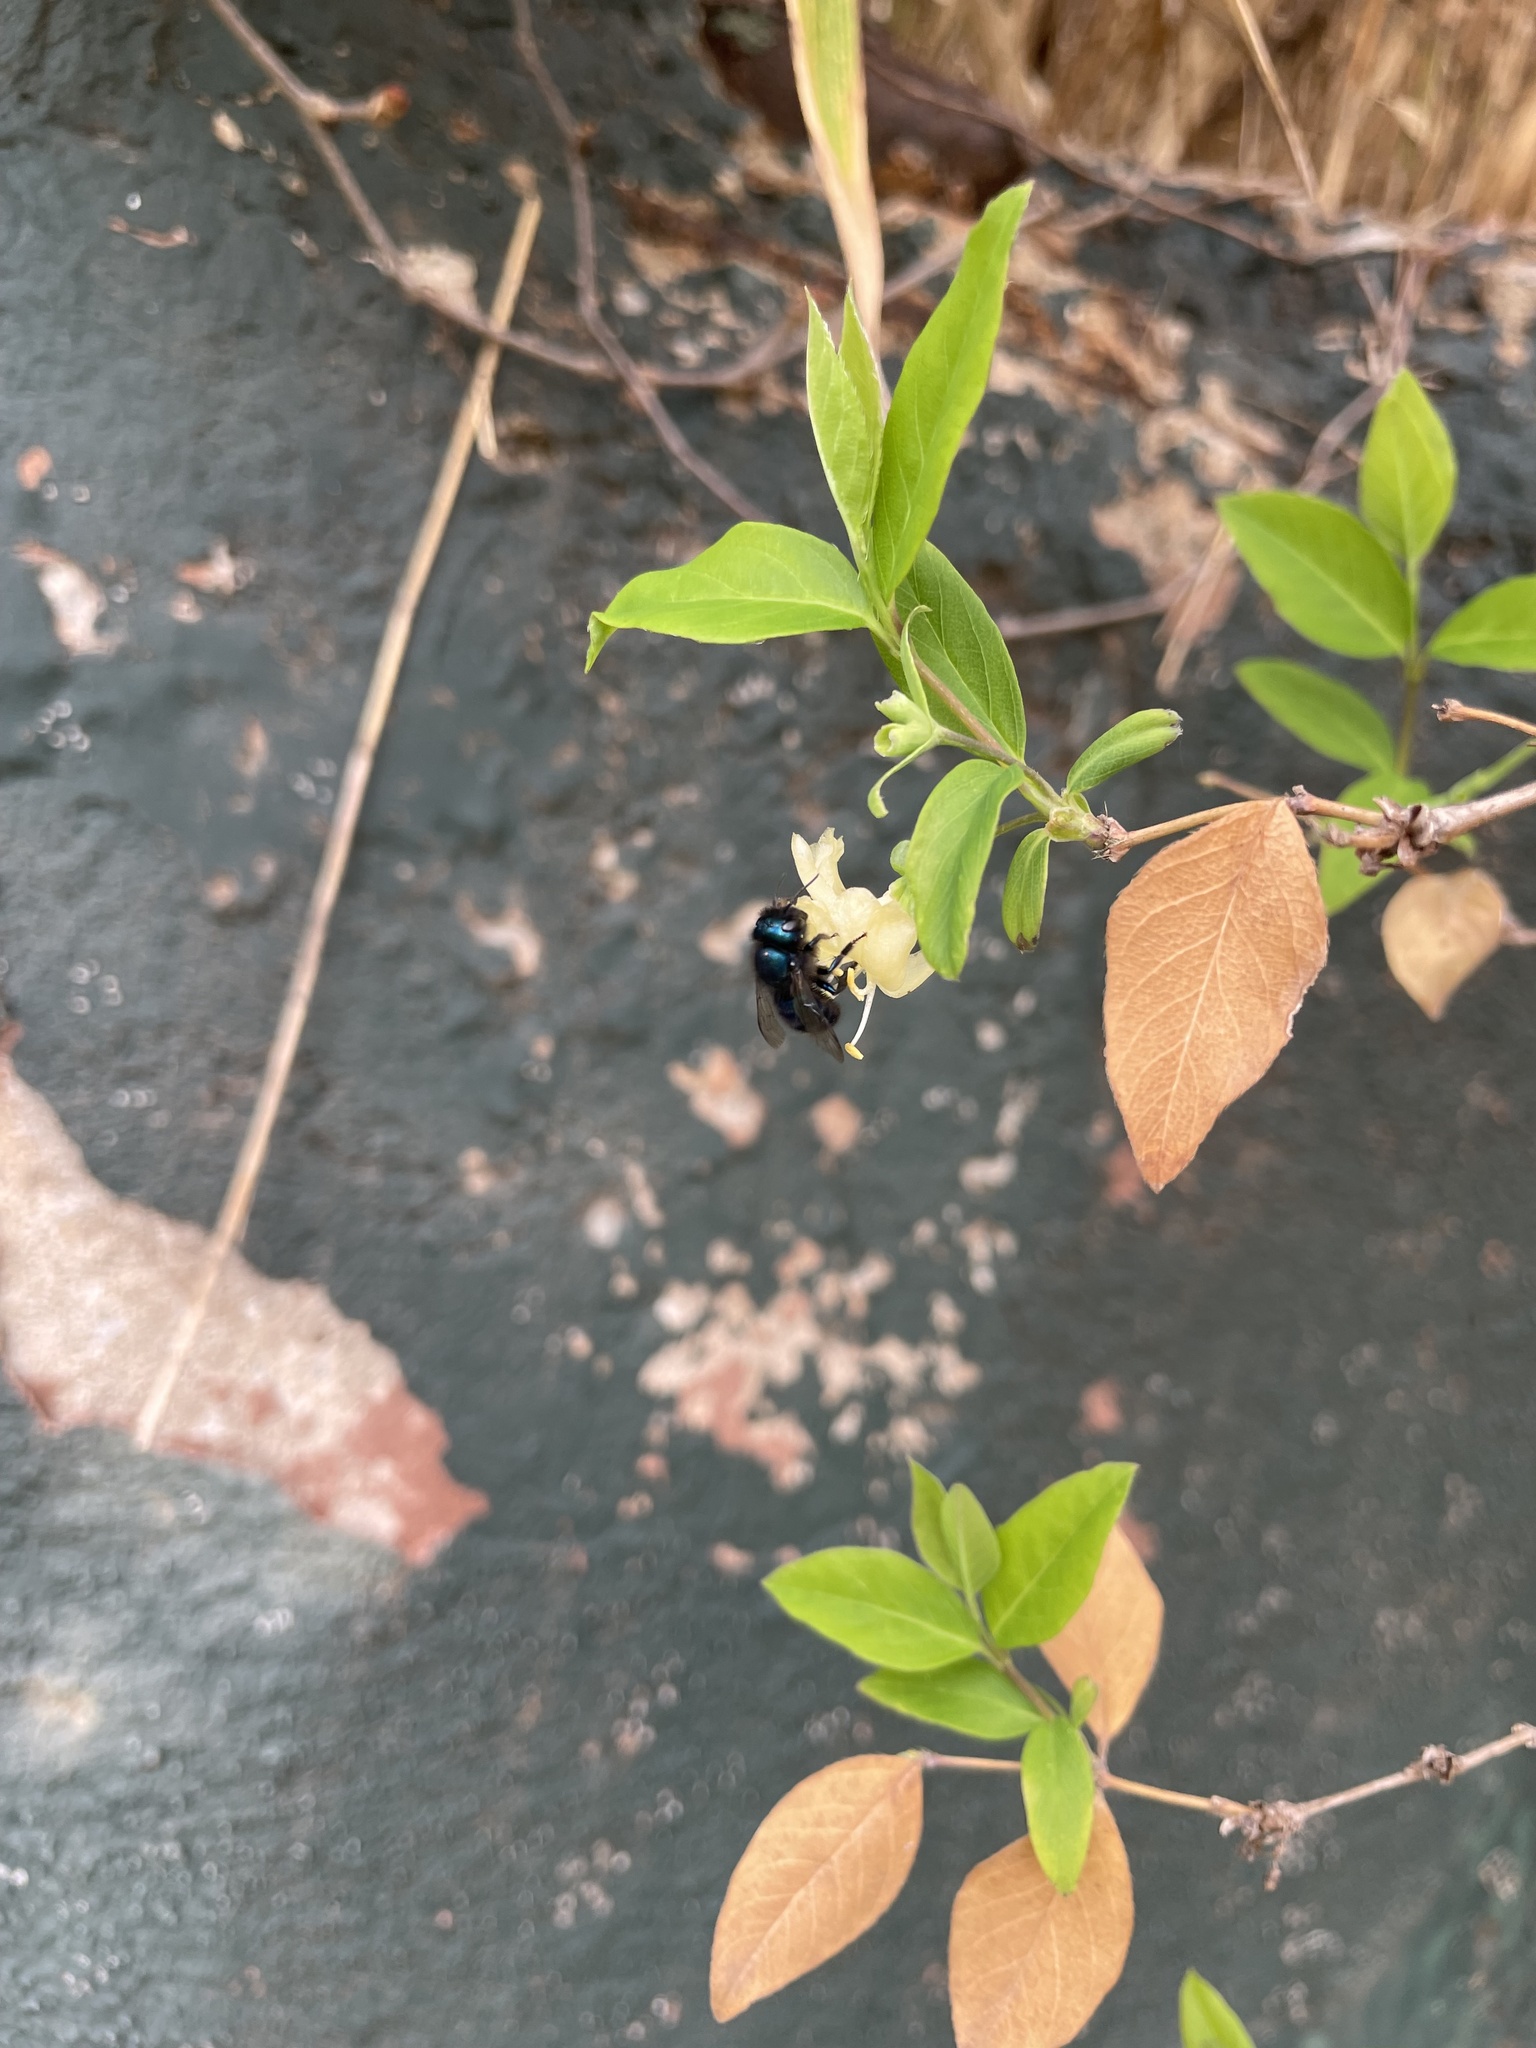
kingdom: Animalia
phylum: Arthropoda
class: Insecta
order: Hymenoptera
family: Megachilidae
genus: Osmia
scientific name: Osmia ribifloris
